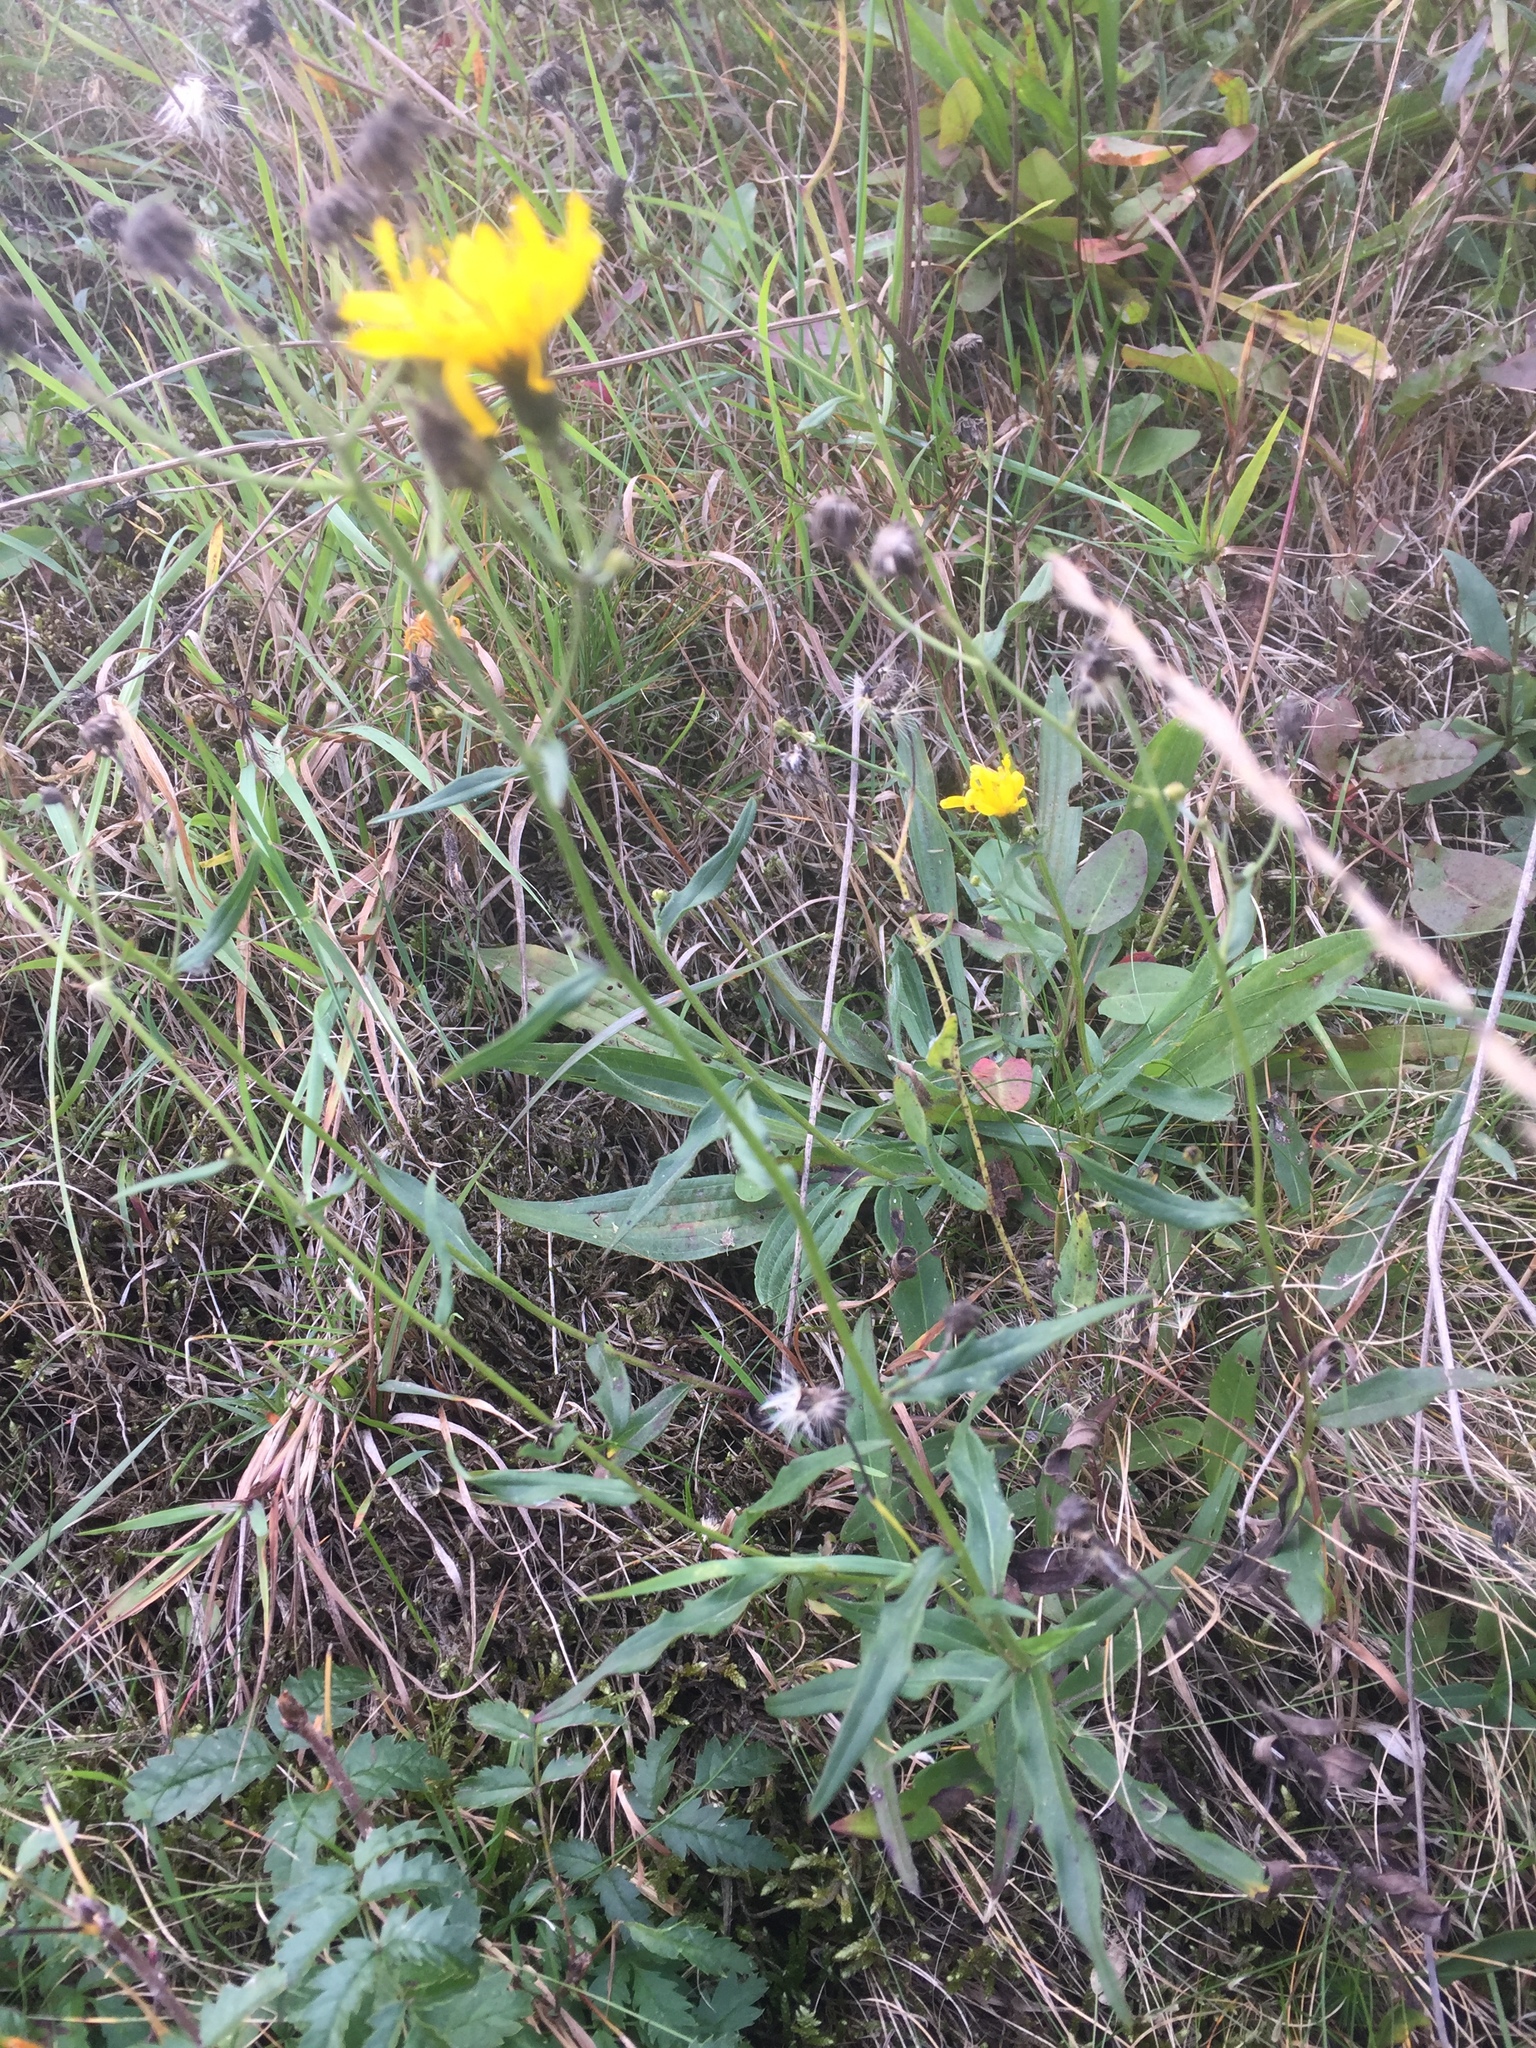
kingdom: Plantae
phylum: Tracheophyta
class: Magnoliopsida
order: Asterales
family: Asteraceae
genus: Hieracium
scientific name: Hieracium umbellatum
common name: Northern hawkweed
